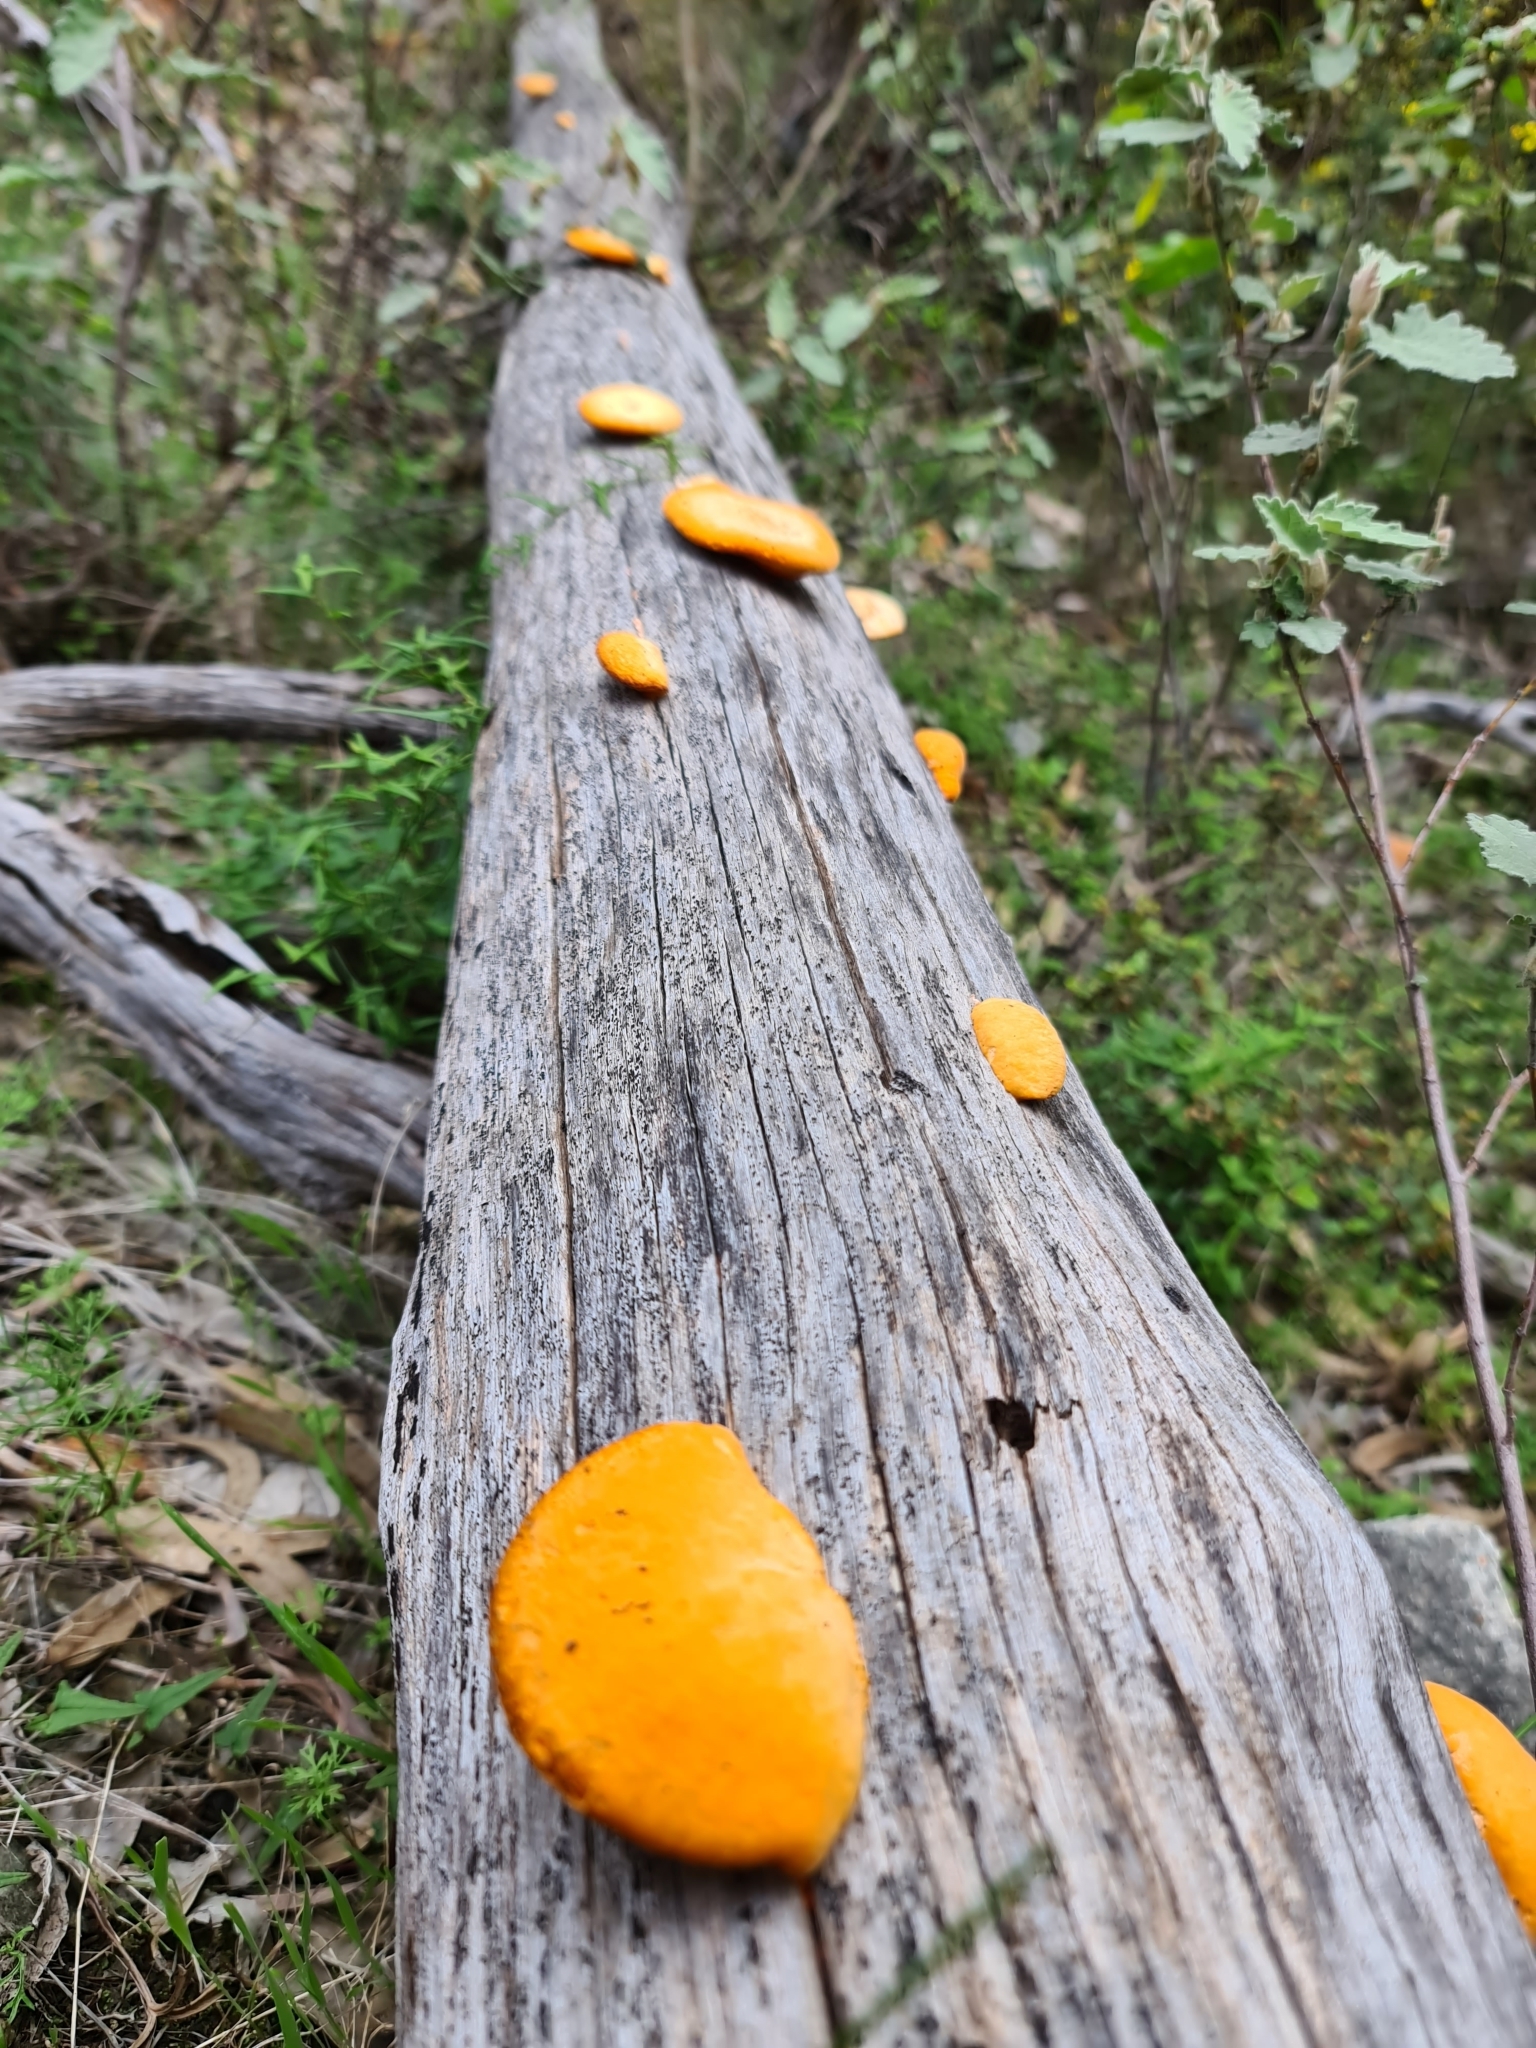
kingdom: Fungi
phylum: Basidiomycota
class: Agaricomycetes
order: Polyporales
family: Polyporaceae
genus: Trametes
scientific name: Trametes coccinea
